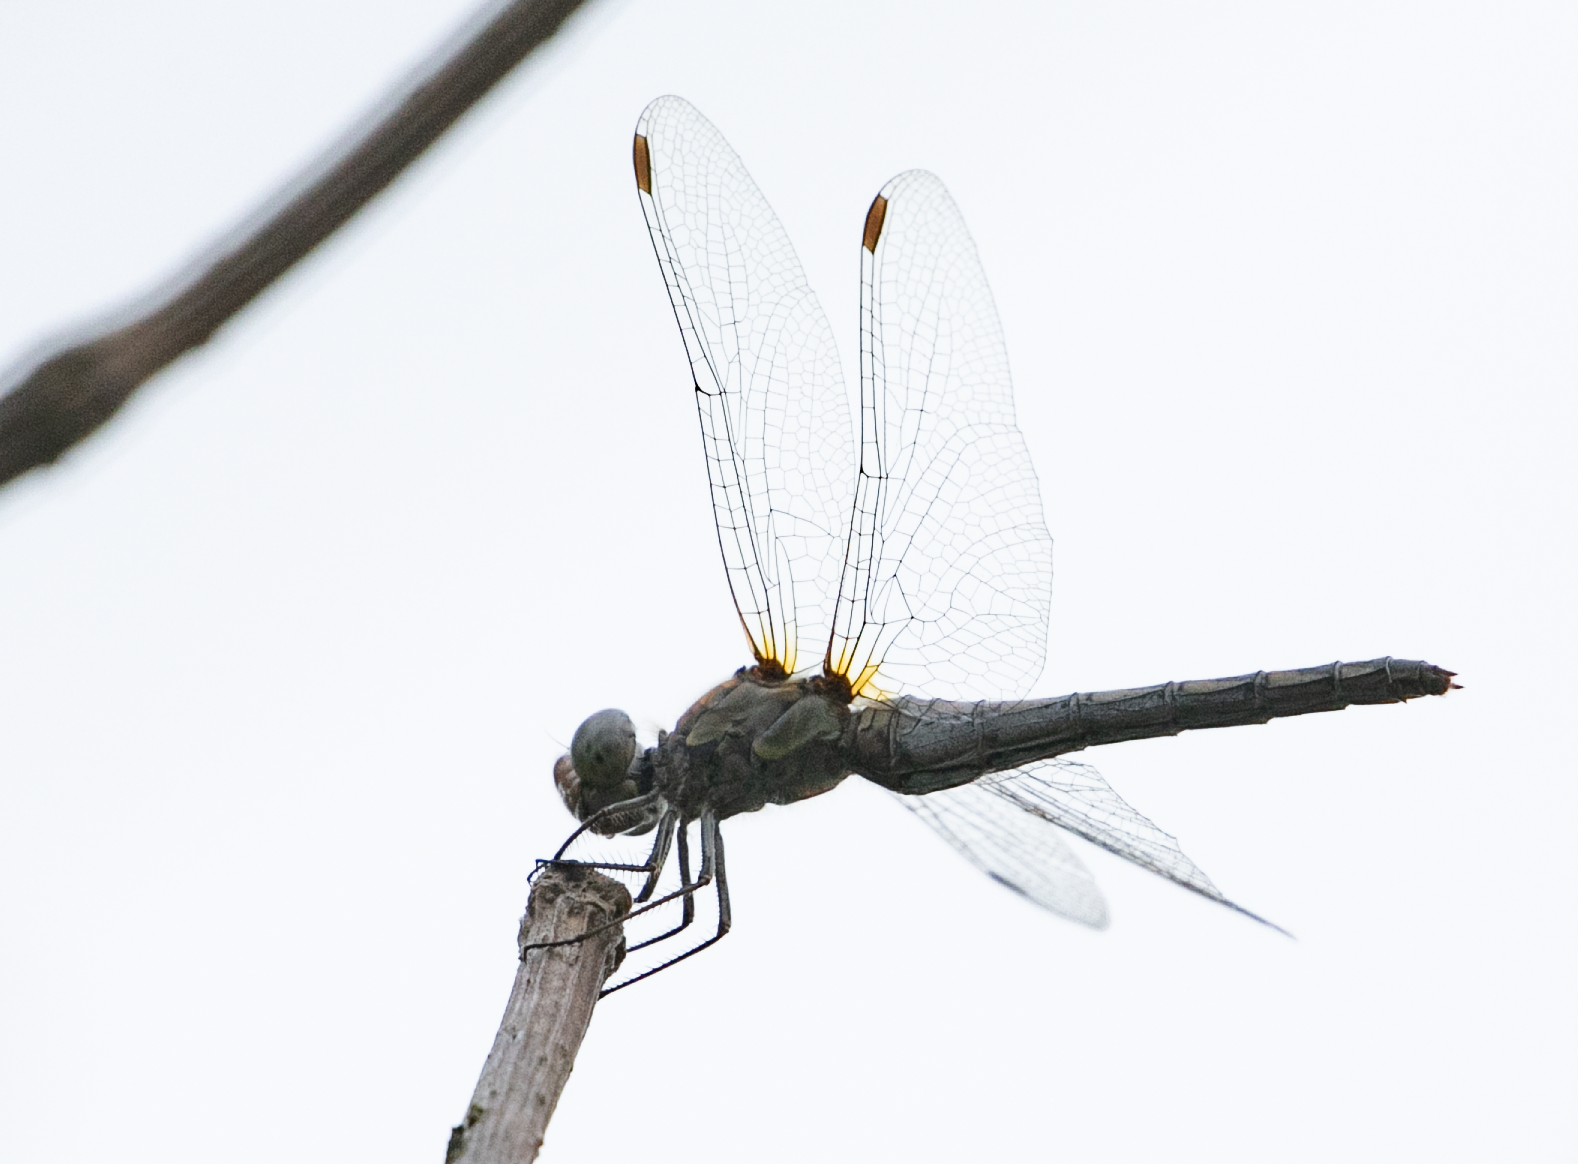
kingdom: Animalia
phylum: Arthropoda
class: Insecta
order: Odonata
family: Libellulidae
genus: Sympetrum
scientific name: Sympetrum striolatum
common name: Common darter
